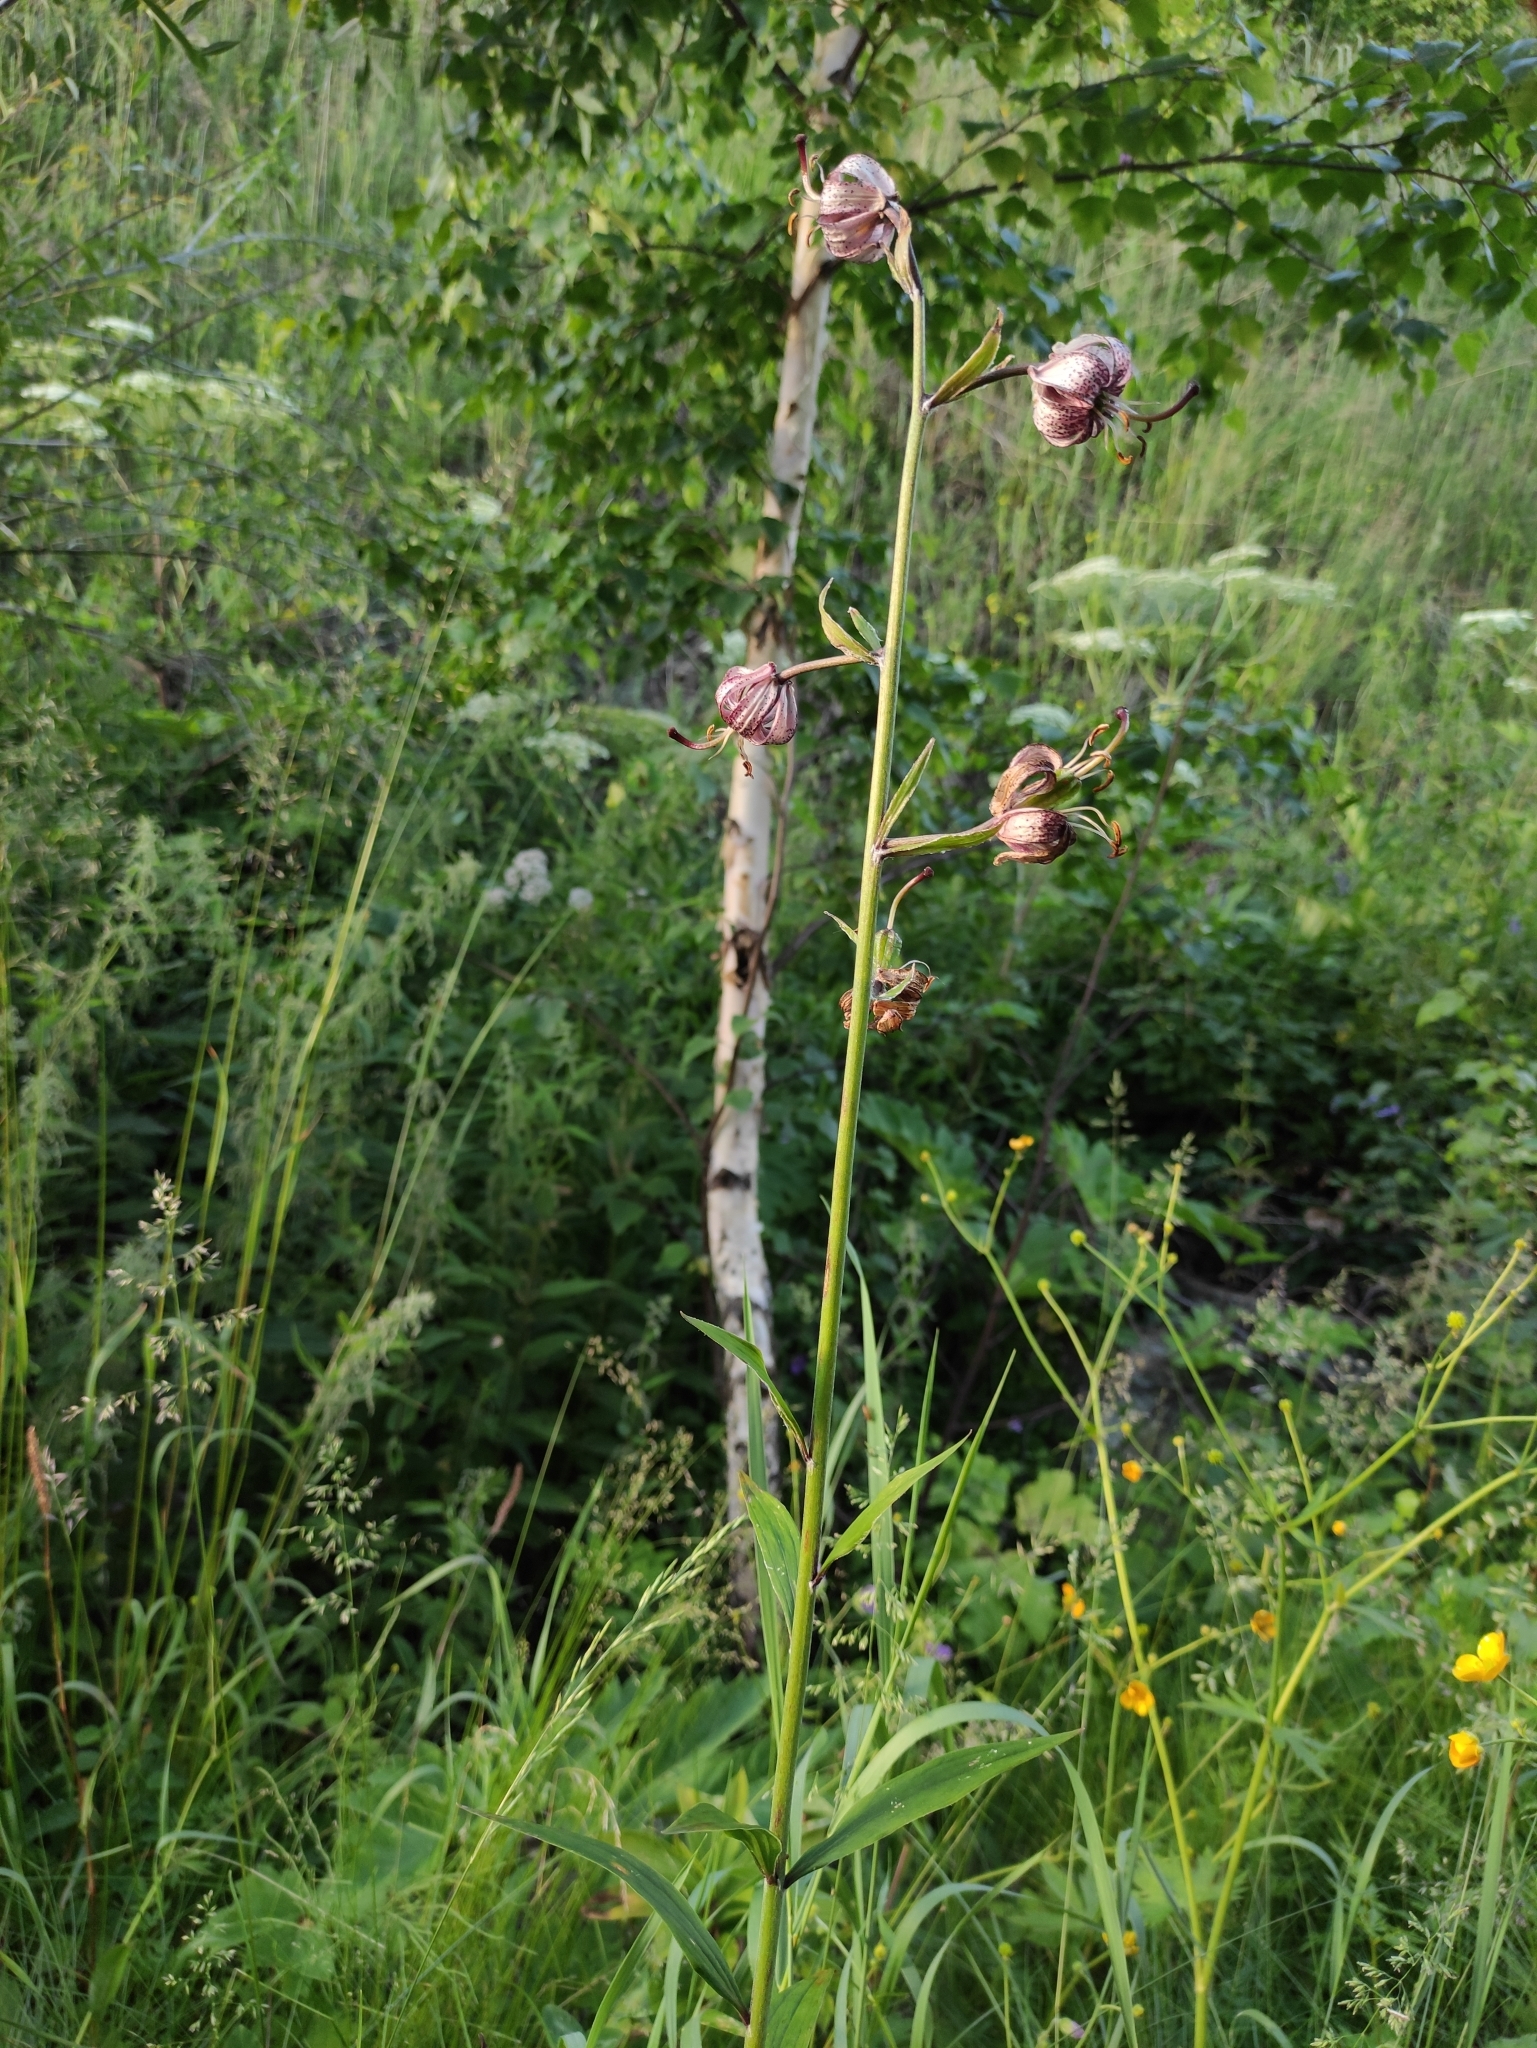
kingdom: Plantae
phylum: Tracheophyta
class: Liliopsida
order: Liliales
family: Liliaceae
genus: Lilium
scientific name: Lilium martagon
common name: Martagon lily
